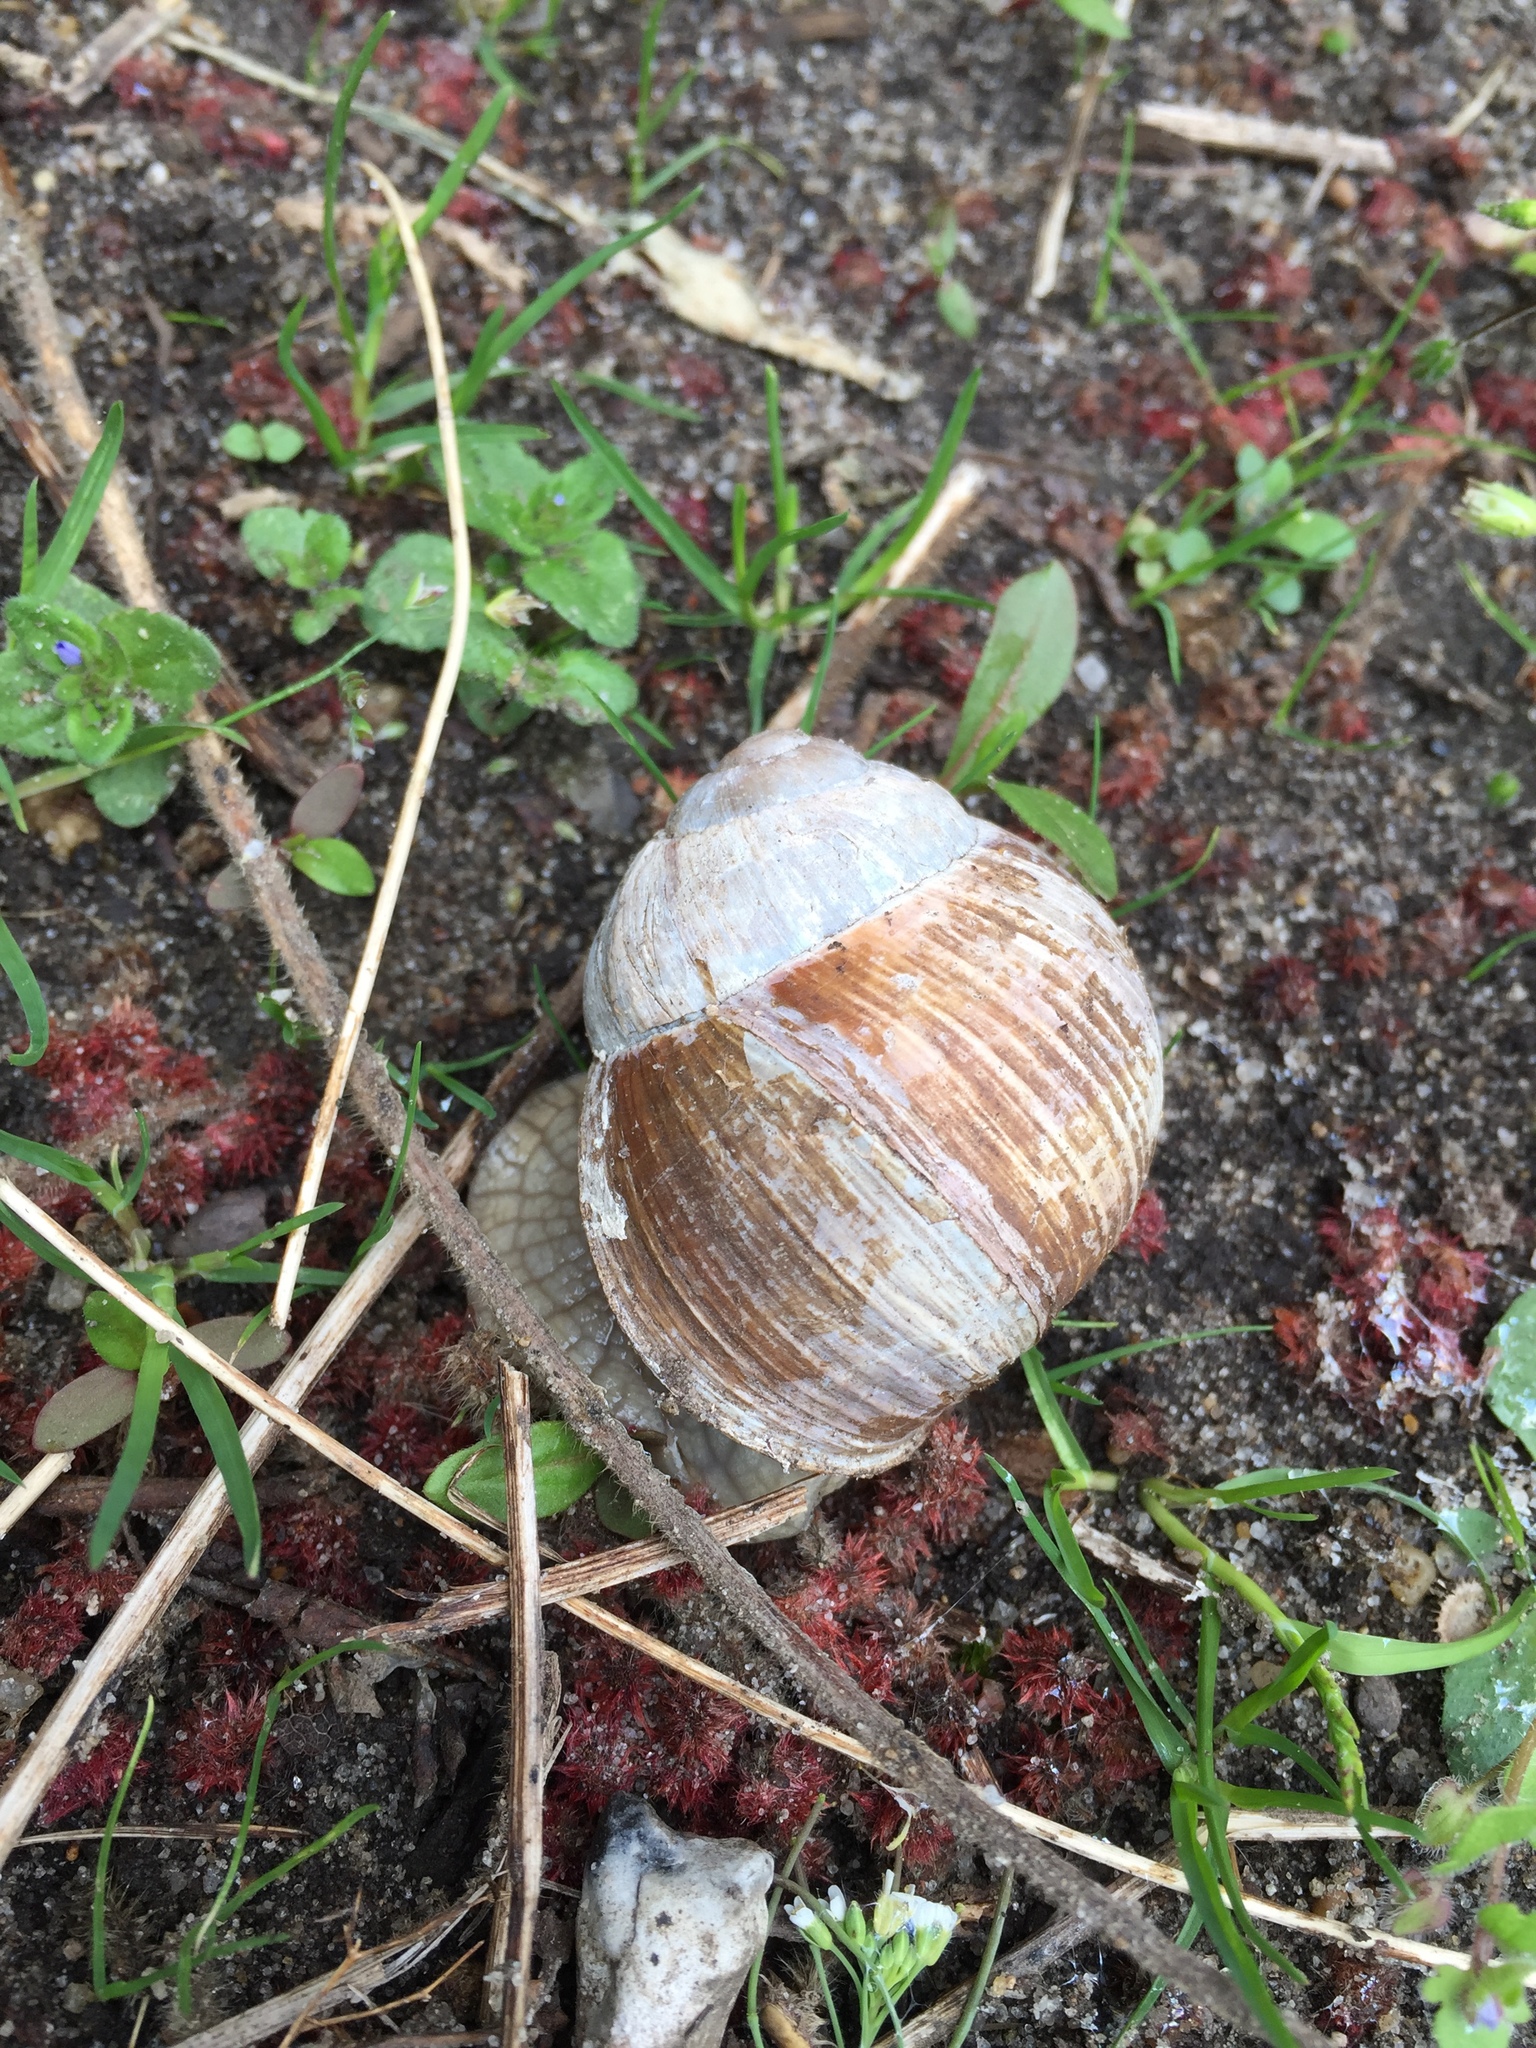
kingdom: Animalia
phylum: Mollusca
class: Gastropoda
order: Stylommatophora
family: Helicidae
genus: Helix
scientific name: Helix pomatia
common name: Roman snail
